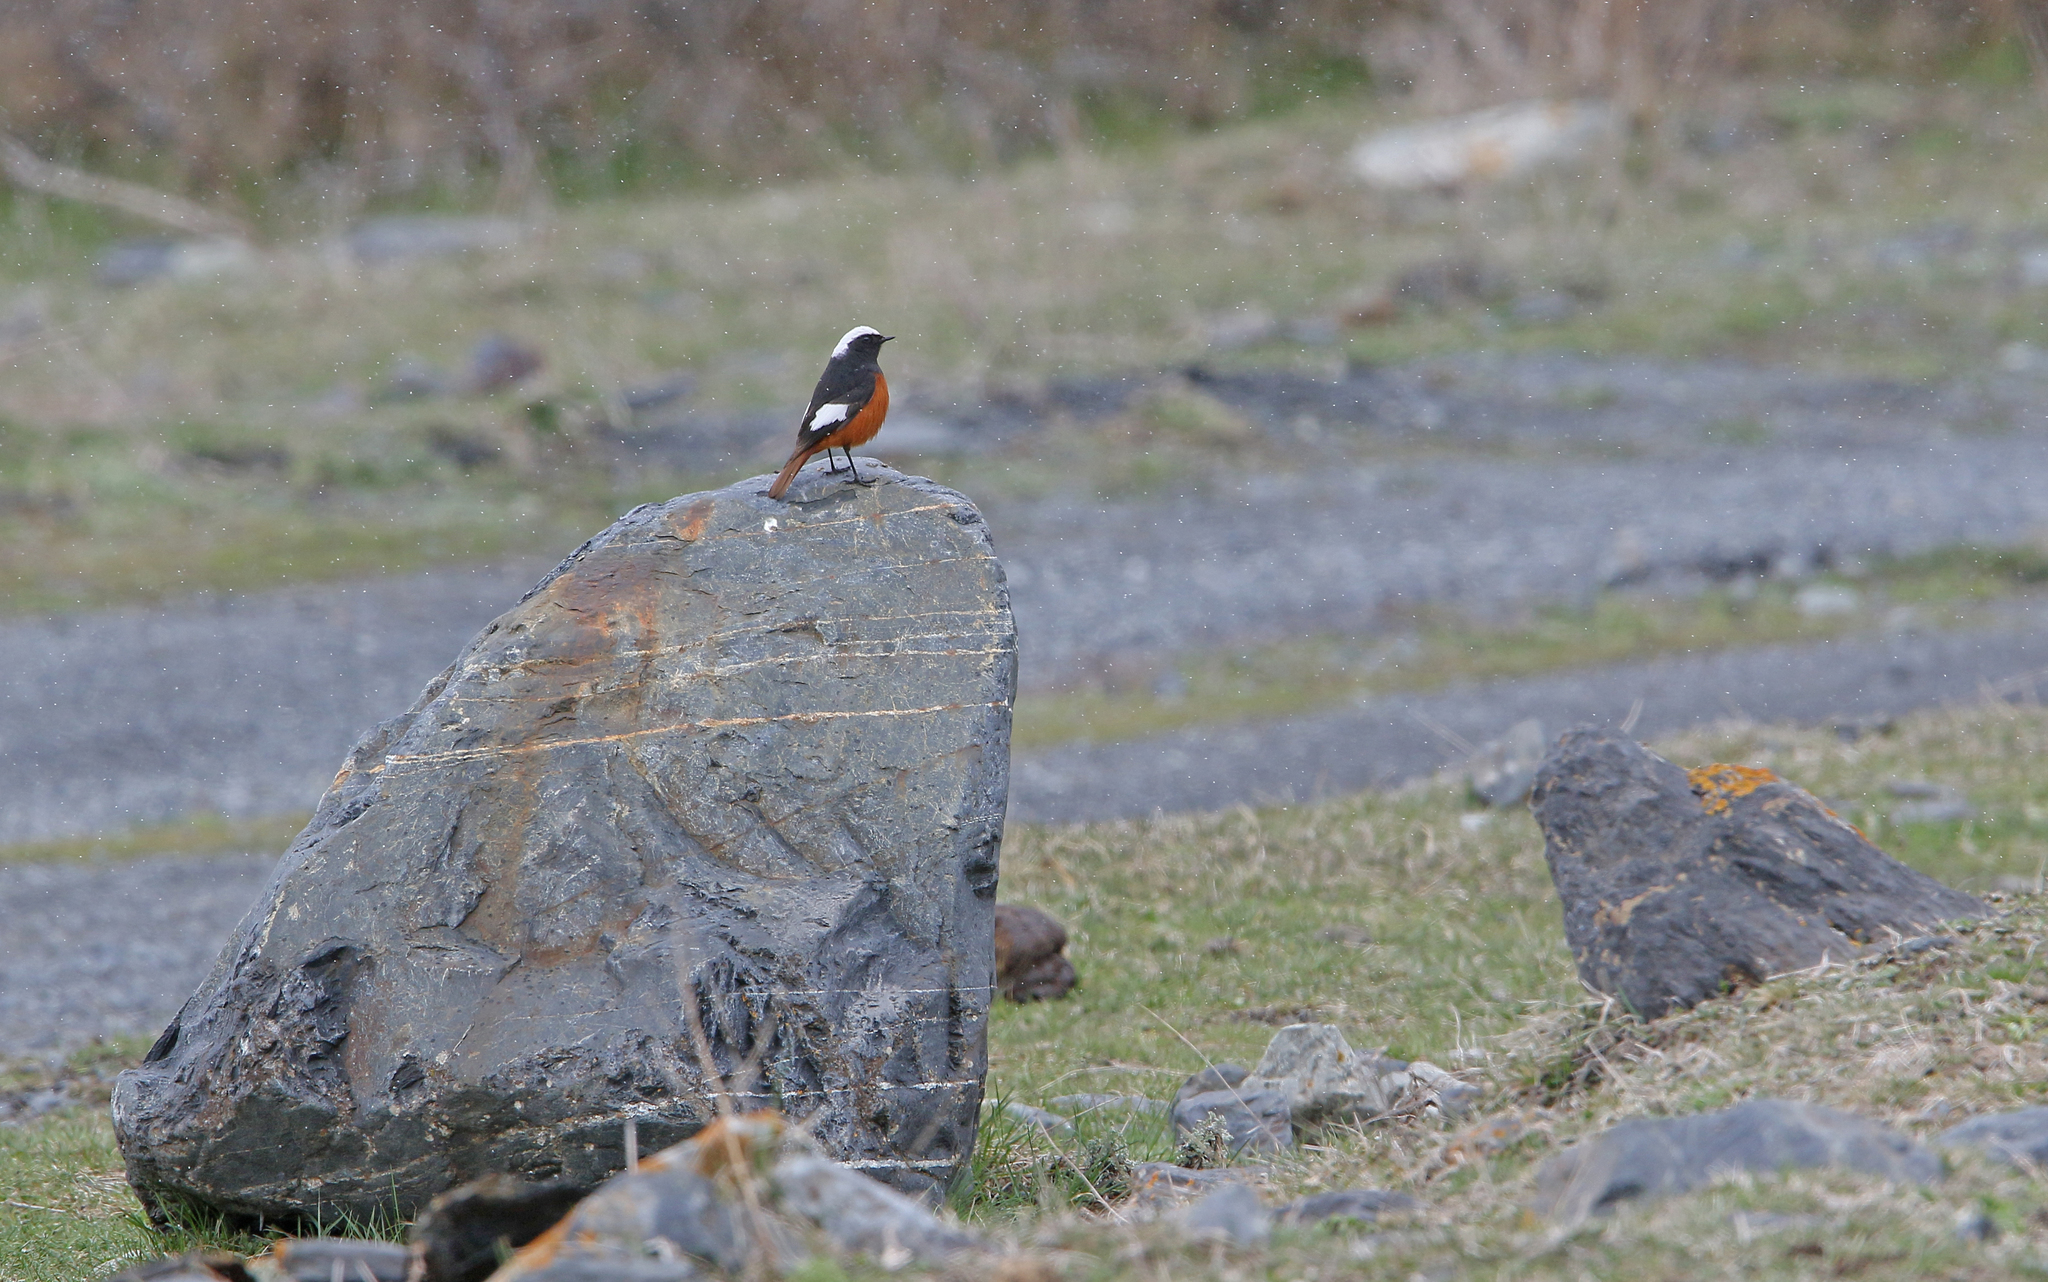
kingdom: Animalia
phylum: Chordata
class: Aves
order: Passeriformes
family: Muscicapidae
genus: Phoenicurus
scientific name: Phoenicurus erythrogastrus
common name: Güldenstädt's redstart
